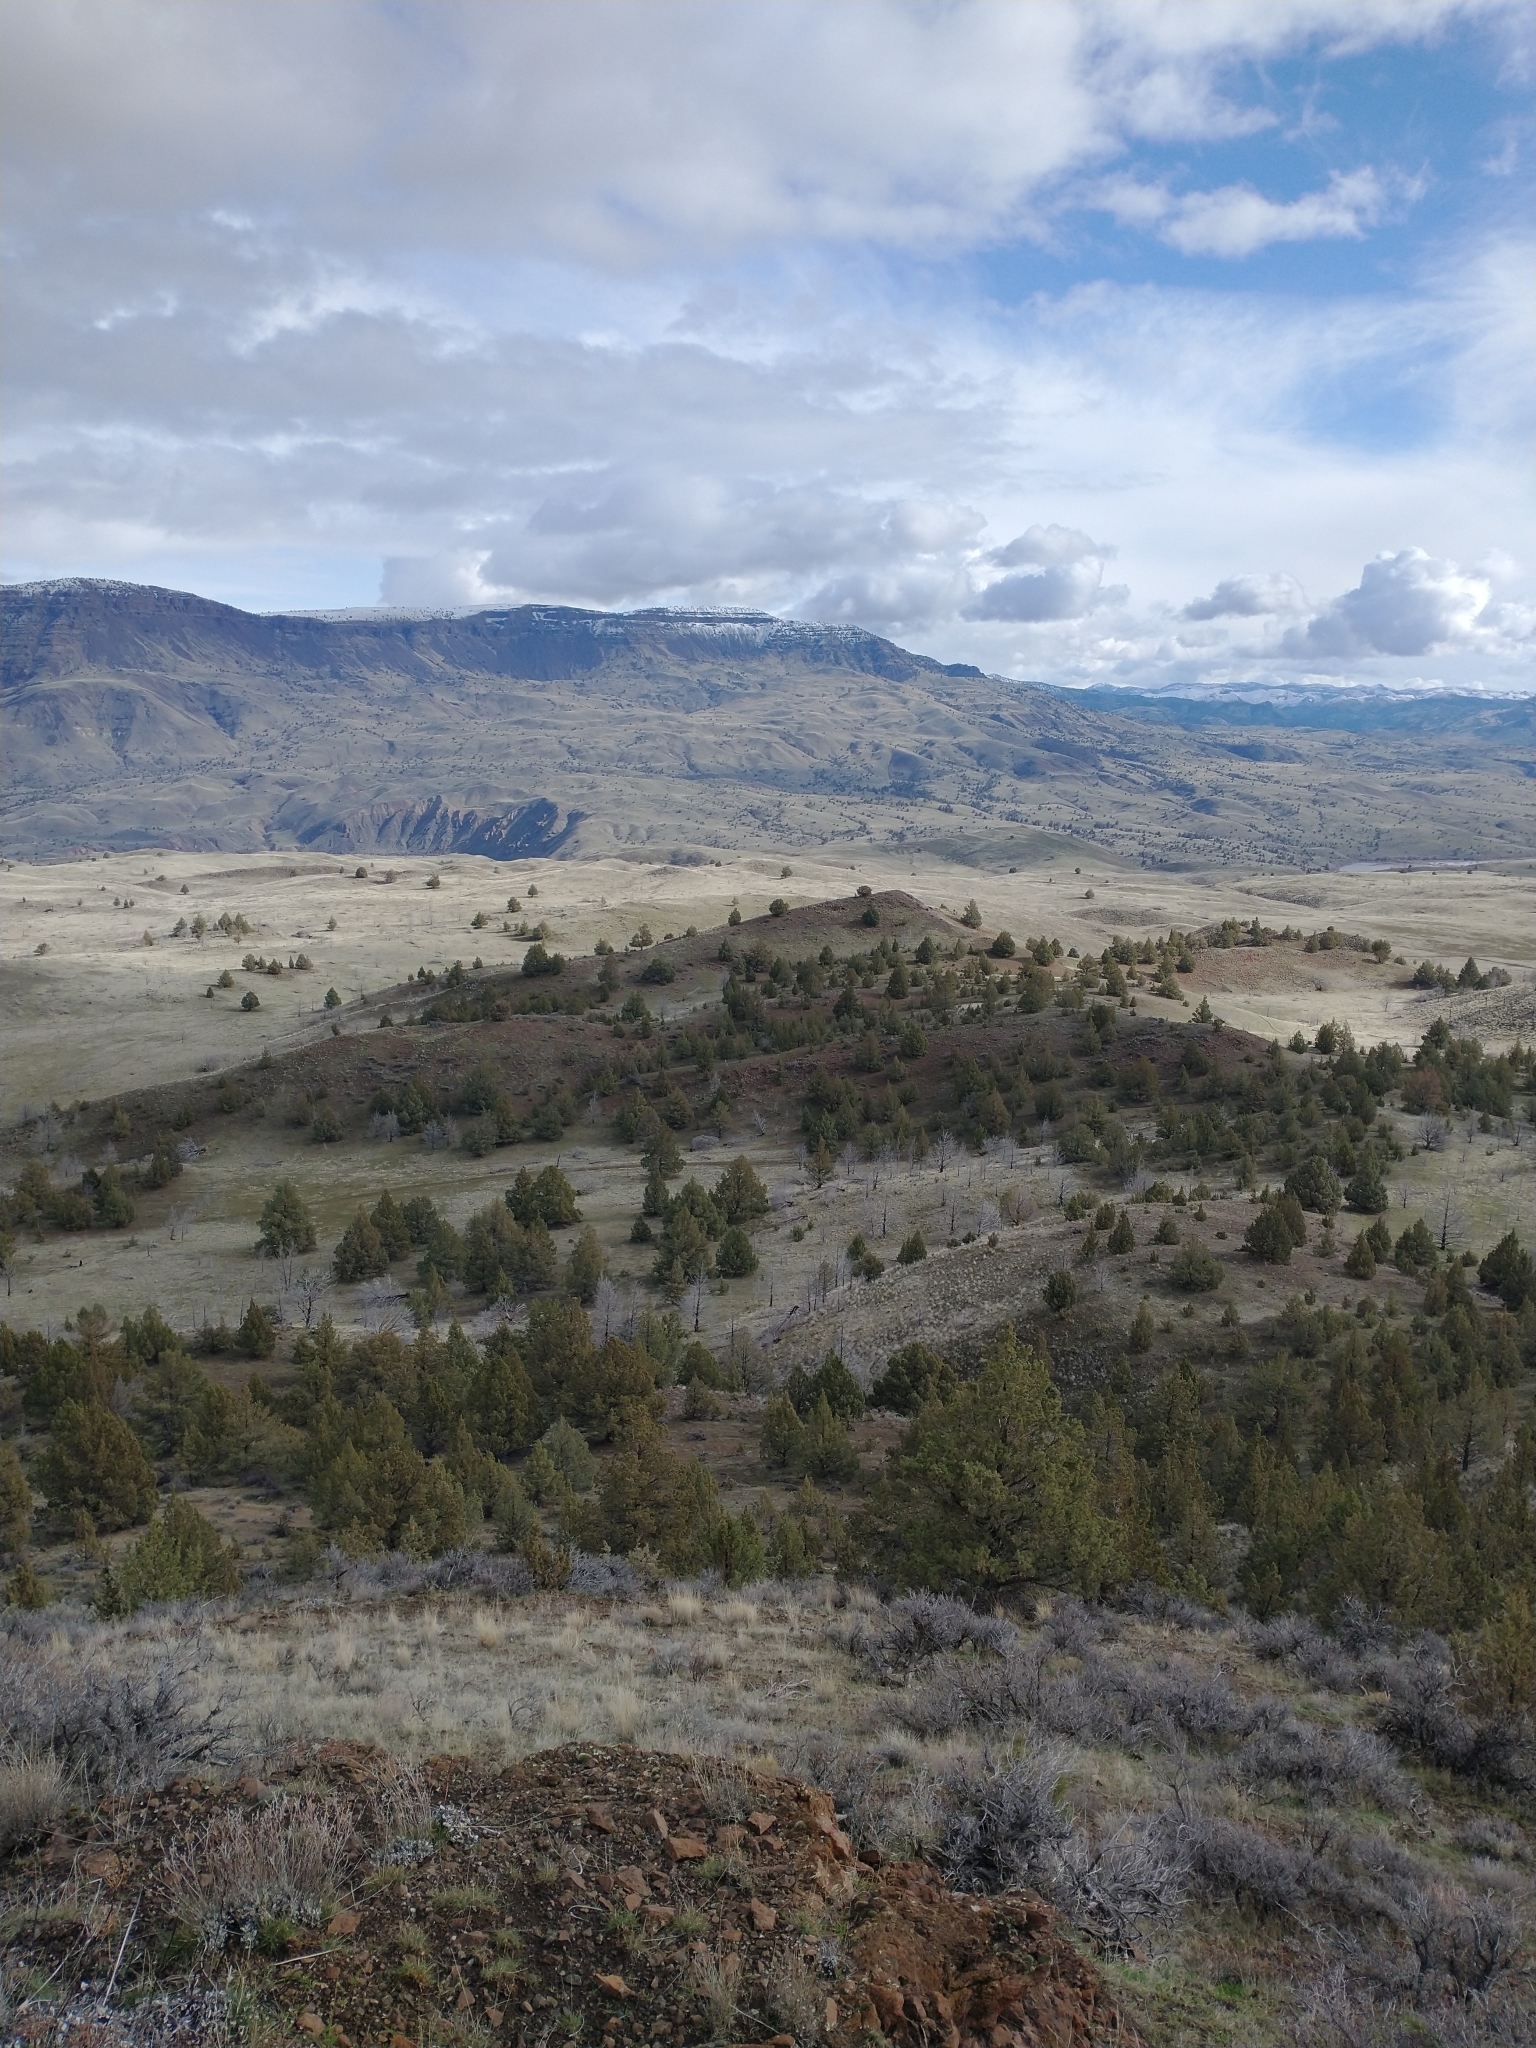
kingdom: Plantae
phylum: Tracheophyta
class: Pinopsida
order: Pinales
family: Cupressaceae
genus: Juniperus
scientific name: Juniperus occidentalis
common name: Western juniper
